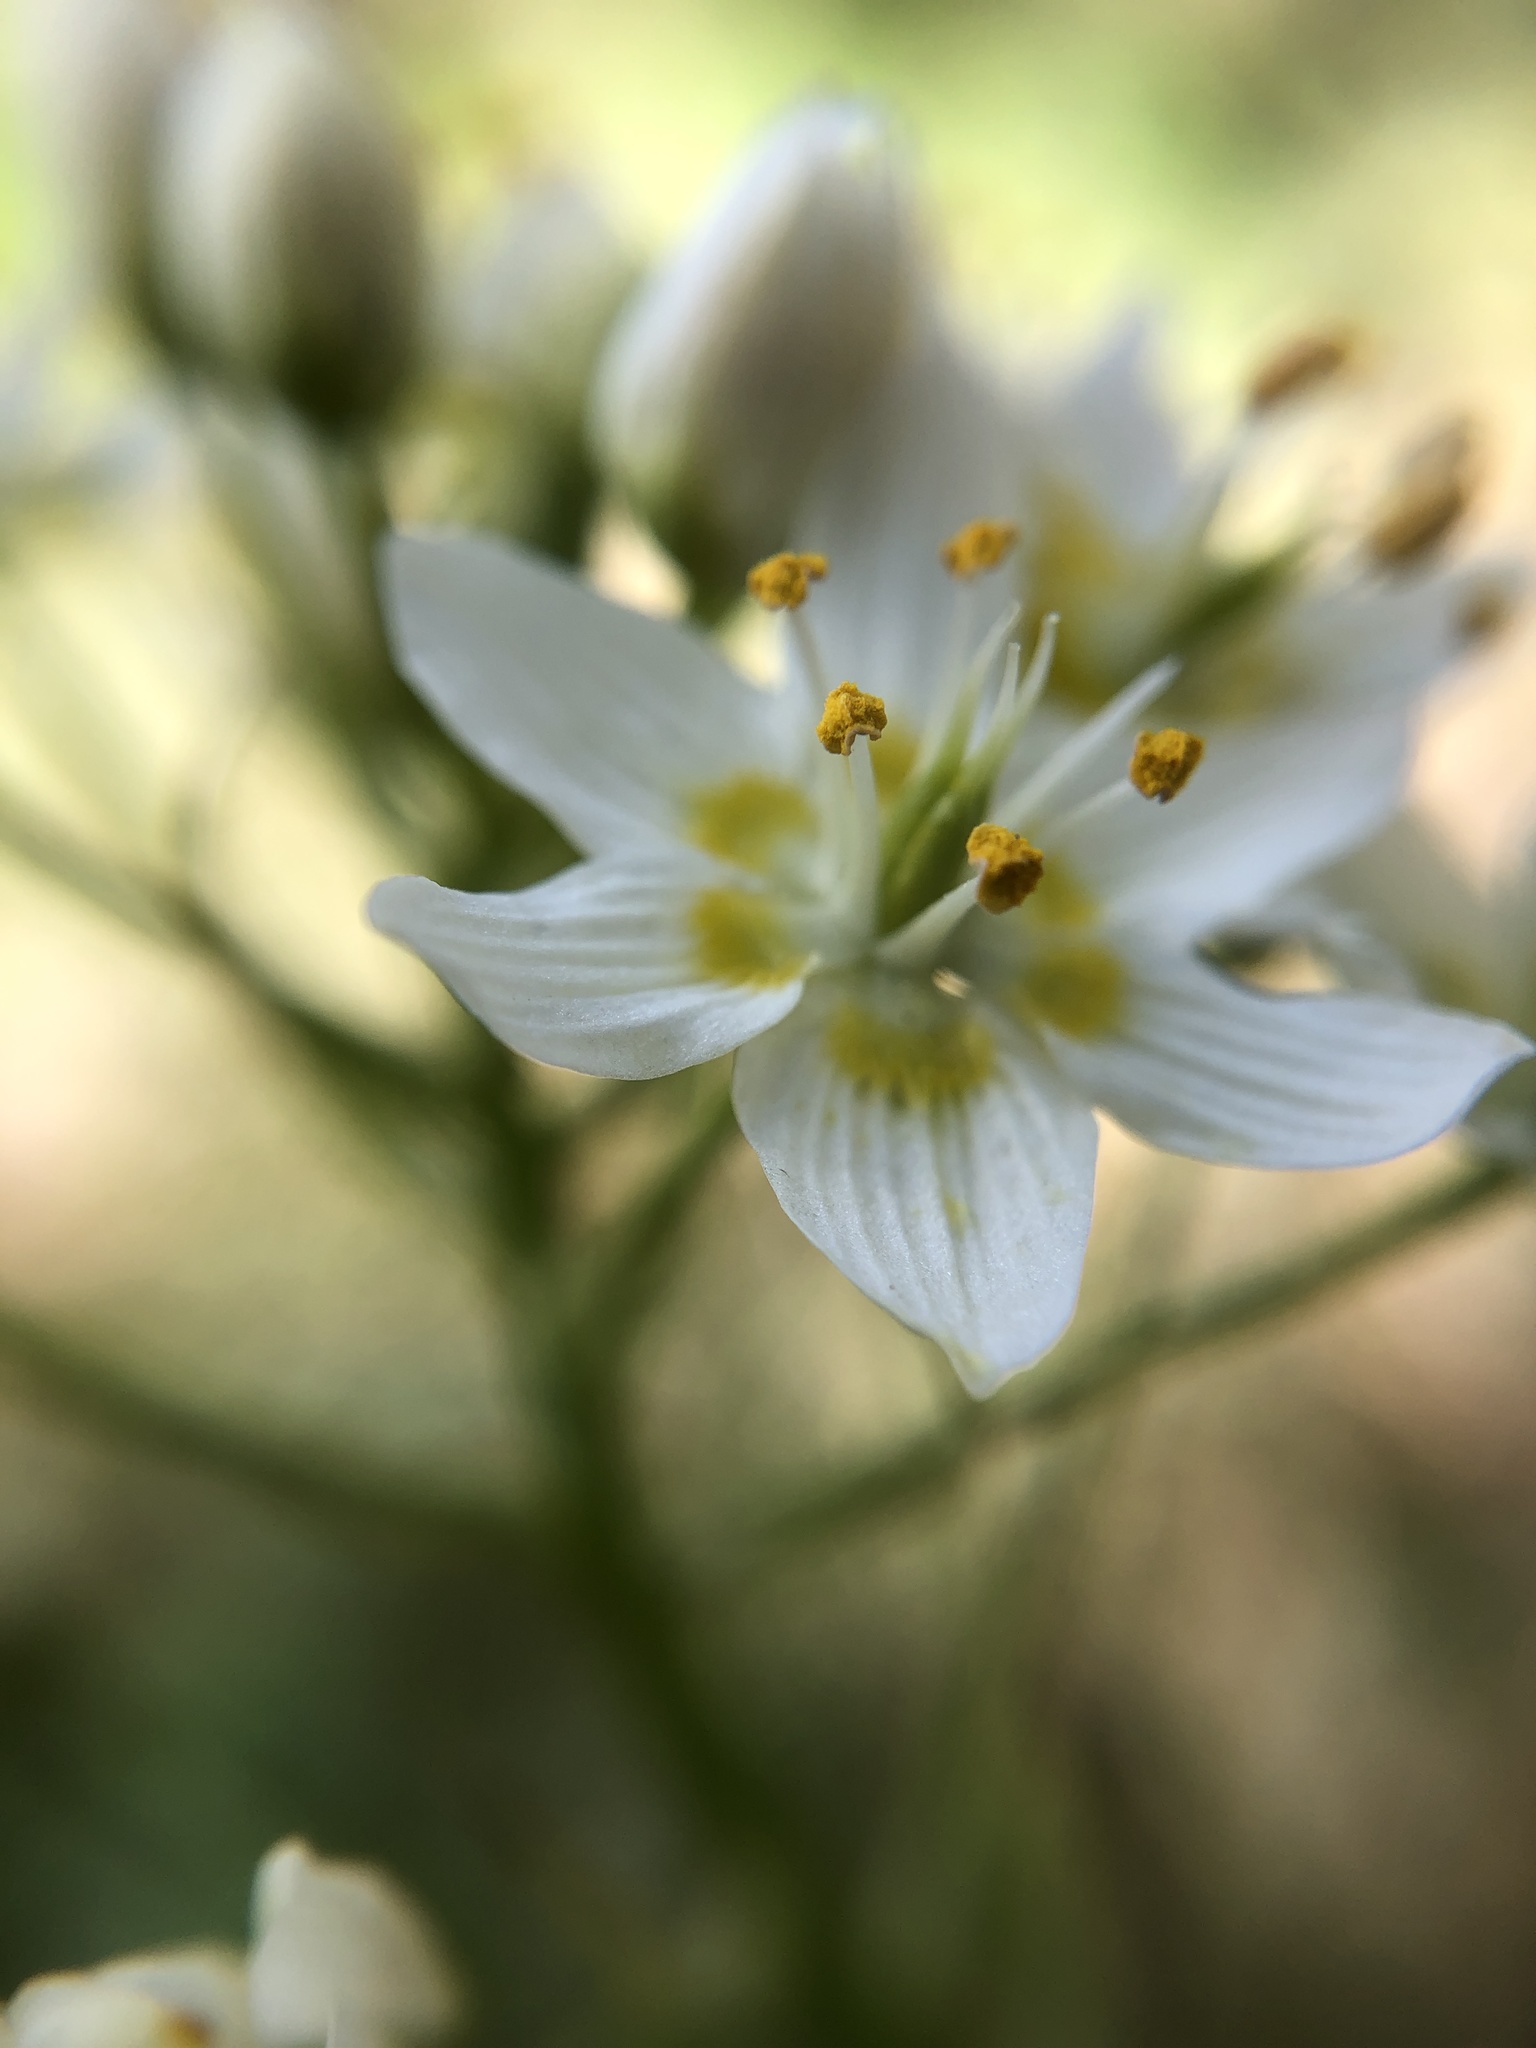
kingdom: Plantae
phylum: Tracheophyta
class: Liliopsida
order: Liliales
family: Melanthiaceae
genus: Toxicoscordion
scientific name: Toxicoscordion fremontii
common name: Fremont's death camas
